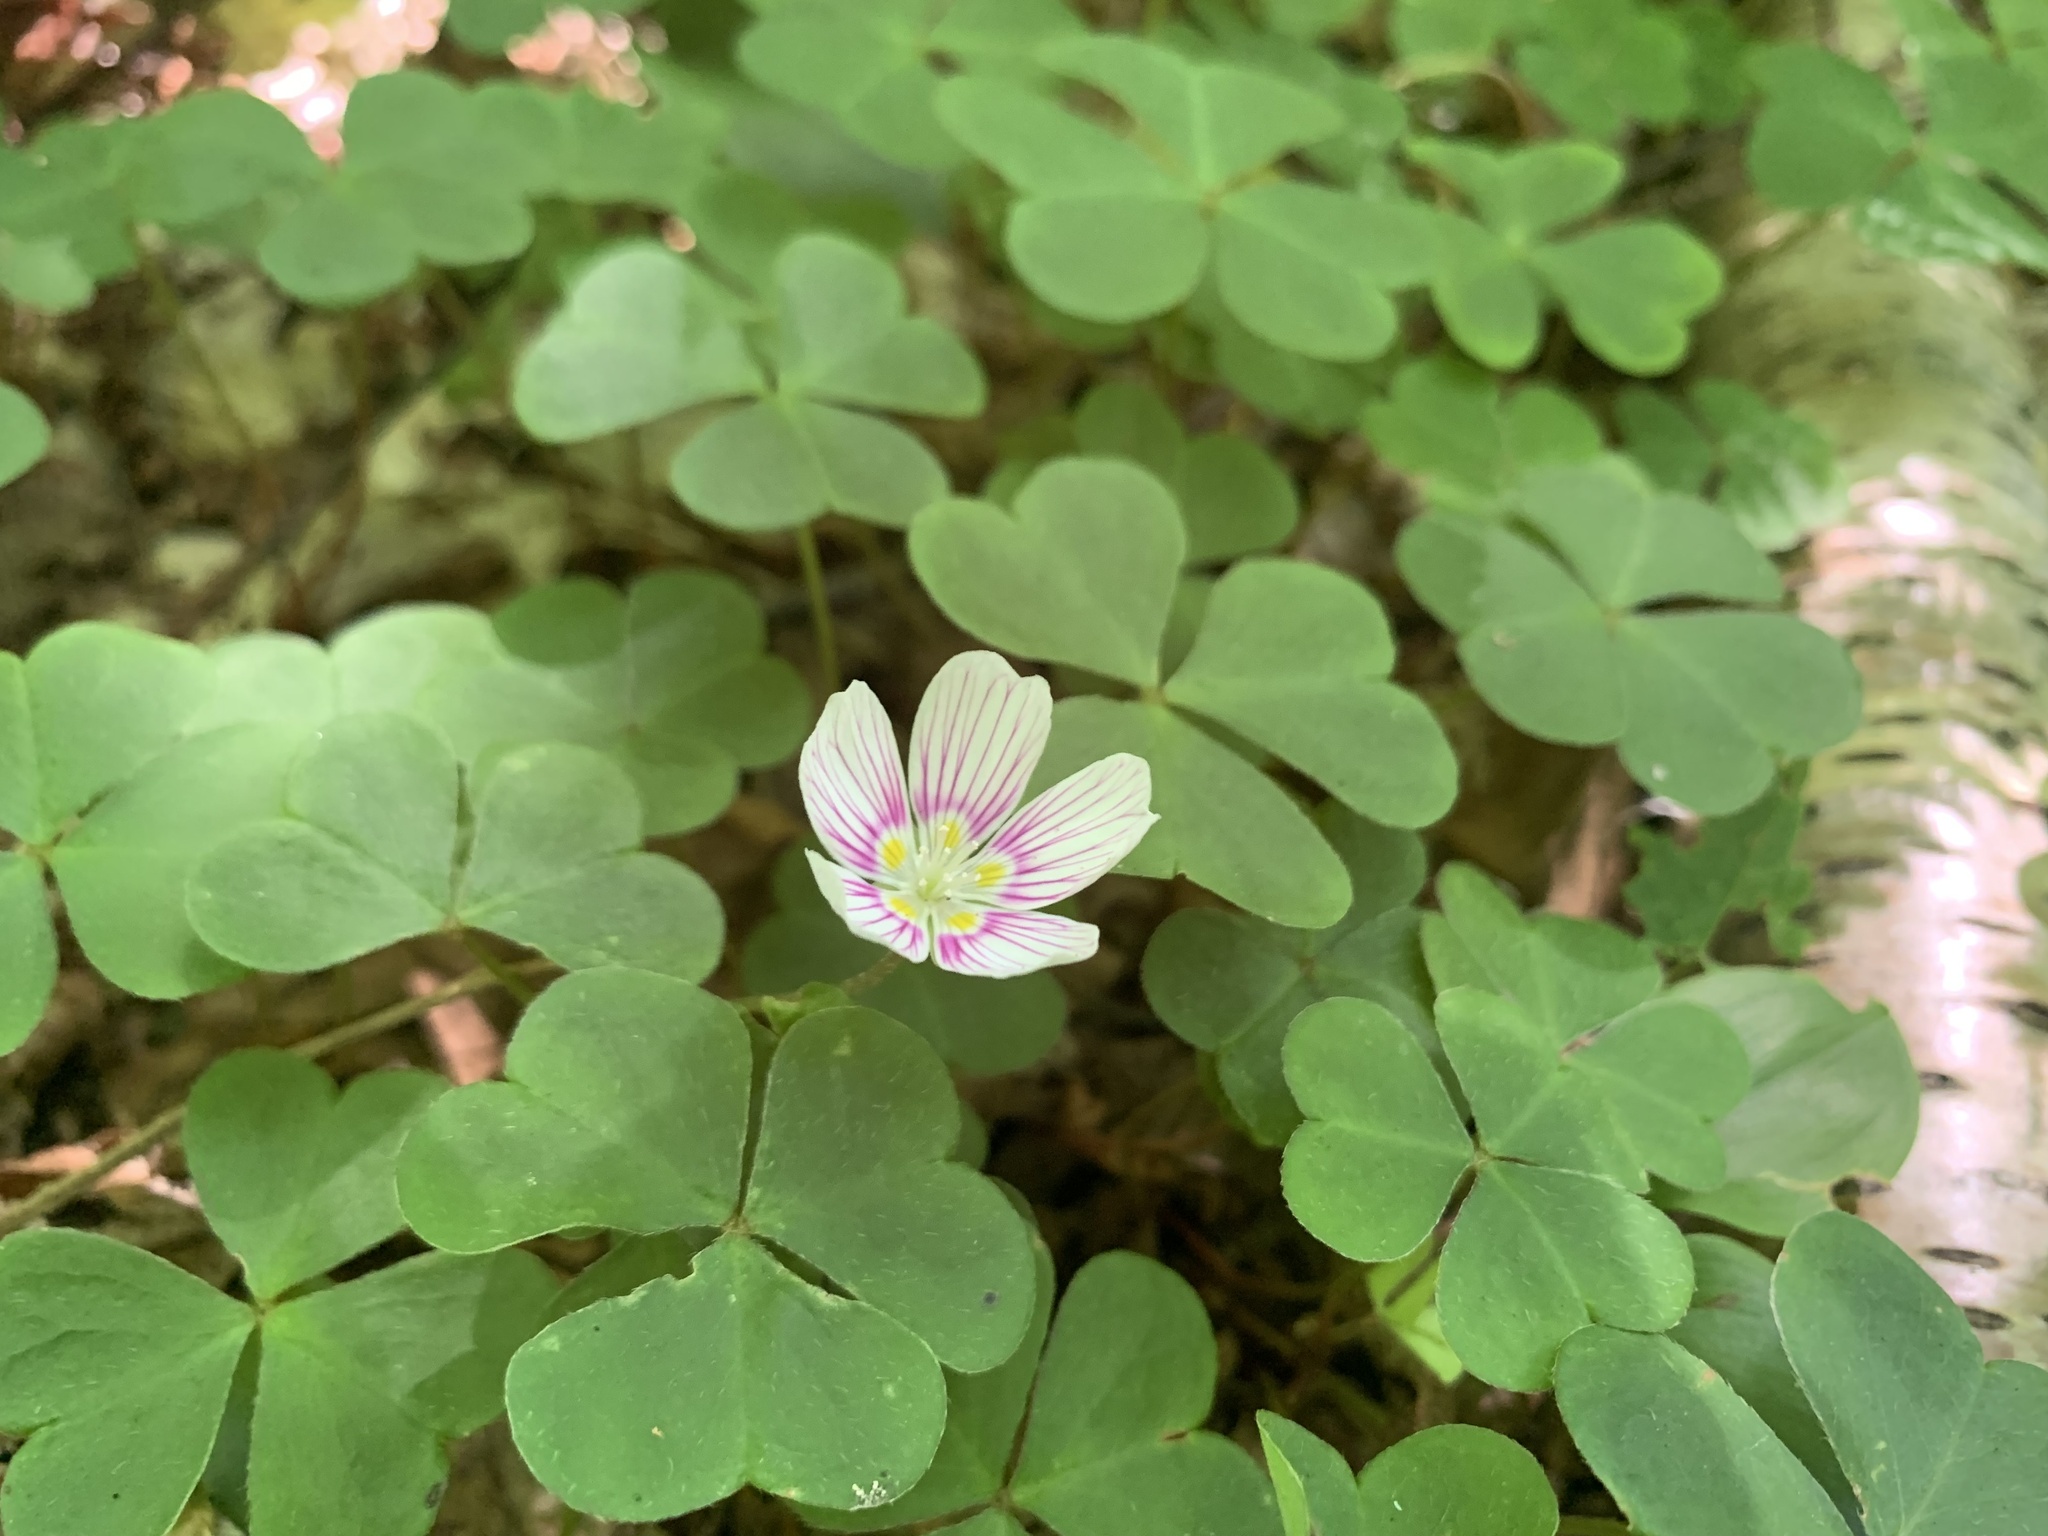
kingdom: Plantae
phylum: Tracheophyta
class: Magnoliopsida
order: Oxalidales
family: Oxalidaceae
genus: Oxalis
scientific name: Oxalis montana
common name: American wood-sorrel
